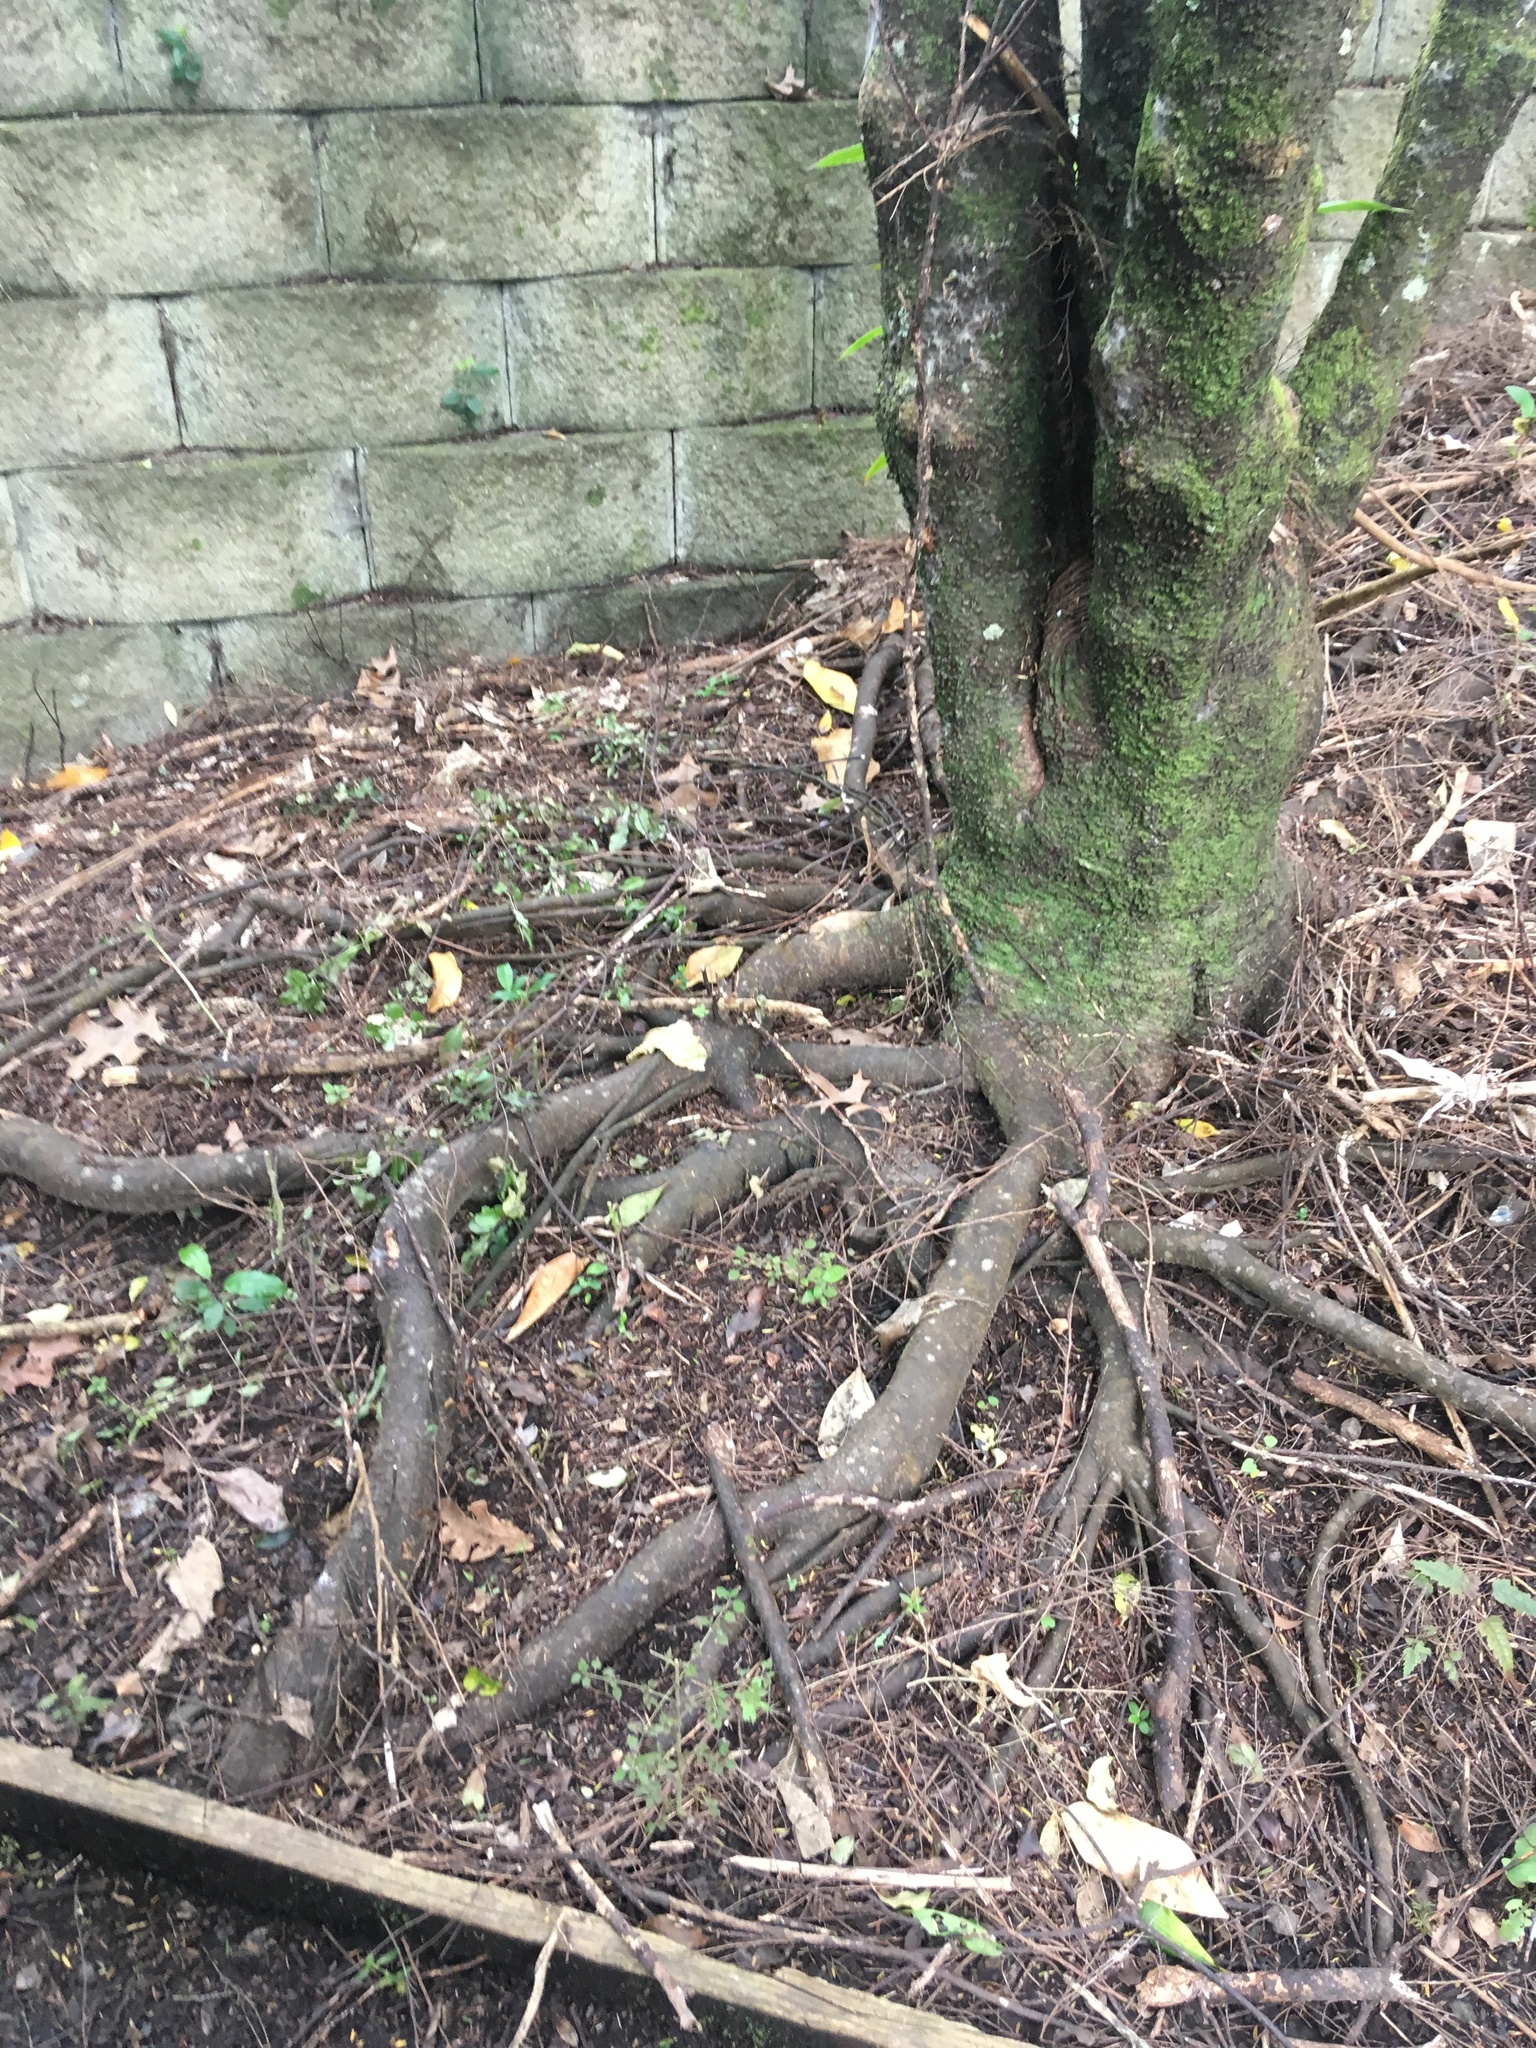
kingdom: Plantae
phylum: Tracheophyta
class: Pinopsida
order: Pinales
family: Podocarpaceae
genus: Dacrycarpus
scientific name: Dacrycarpus dacrydioides
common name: White pine
